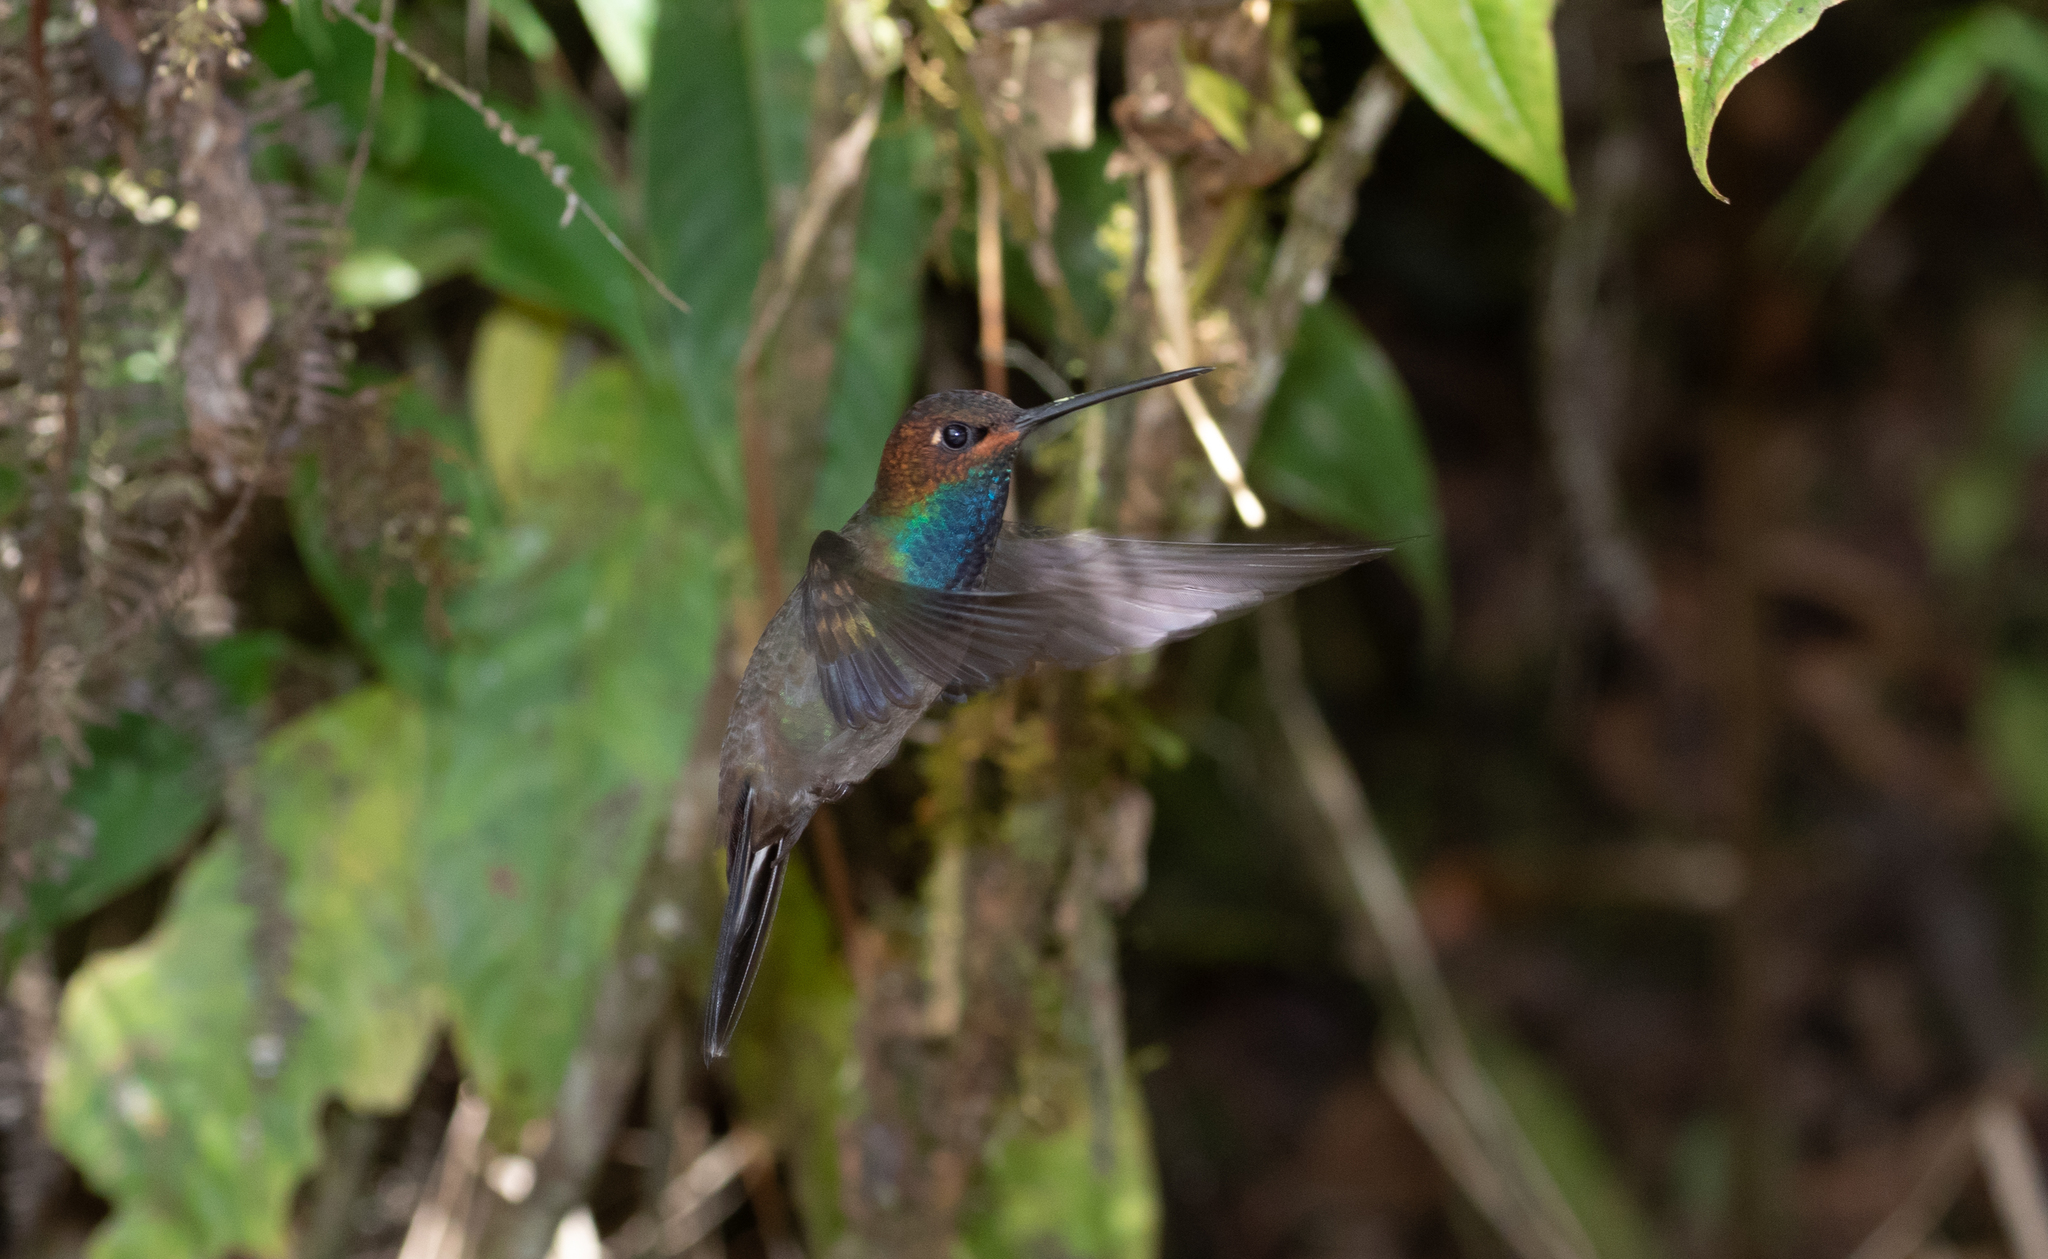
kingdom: Animalia
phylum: Chordata
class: Aves
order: Apodiformes
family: Trochilidae
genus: Urochroa
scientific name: Urochroa bougueri
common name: White-tailed hillstar
